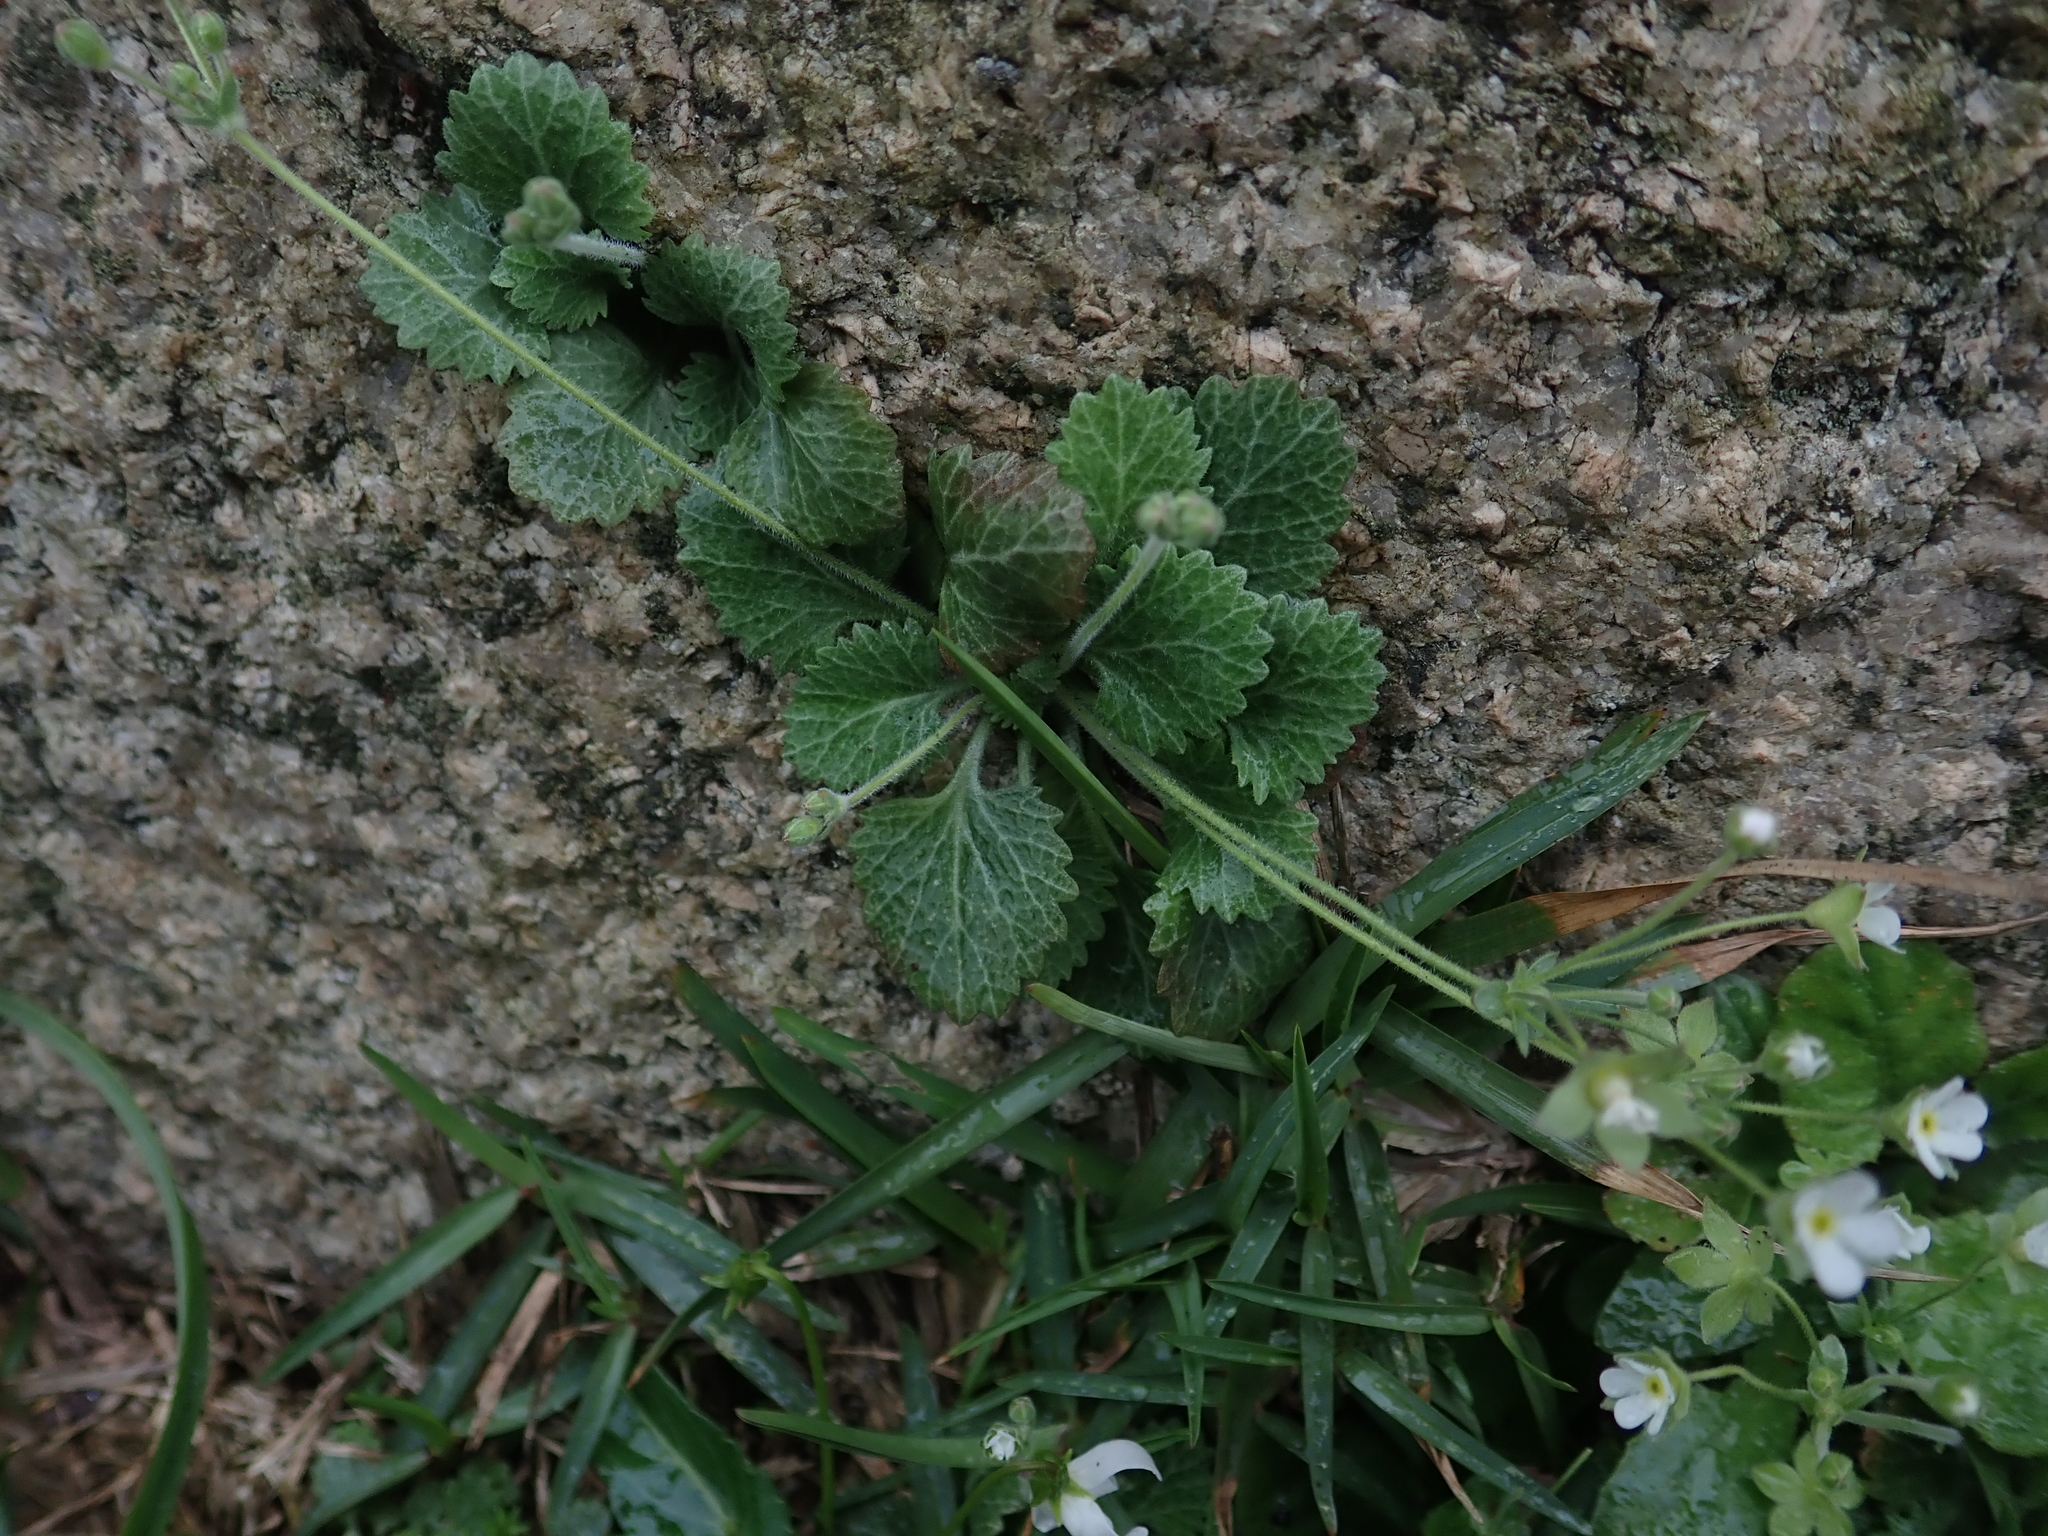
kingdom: Plantae
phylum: Tracheophyta
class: Magnoliopsida
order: Ericales
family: Primulaceae
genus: Androsace
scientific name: Androsace umbellata
